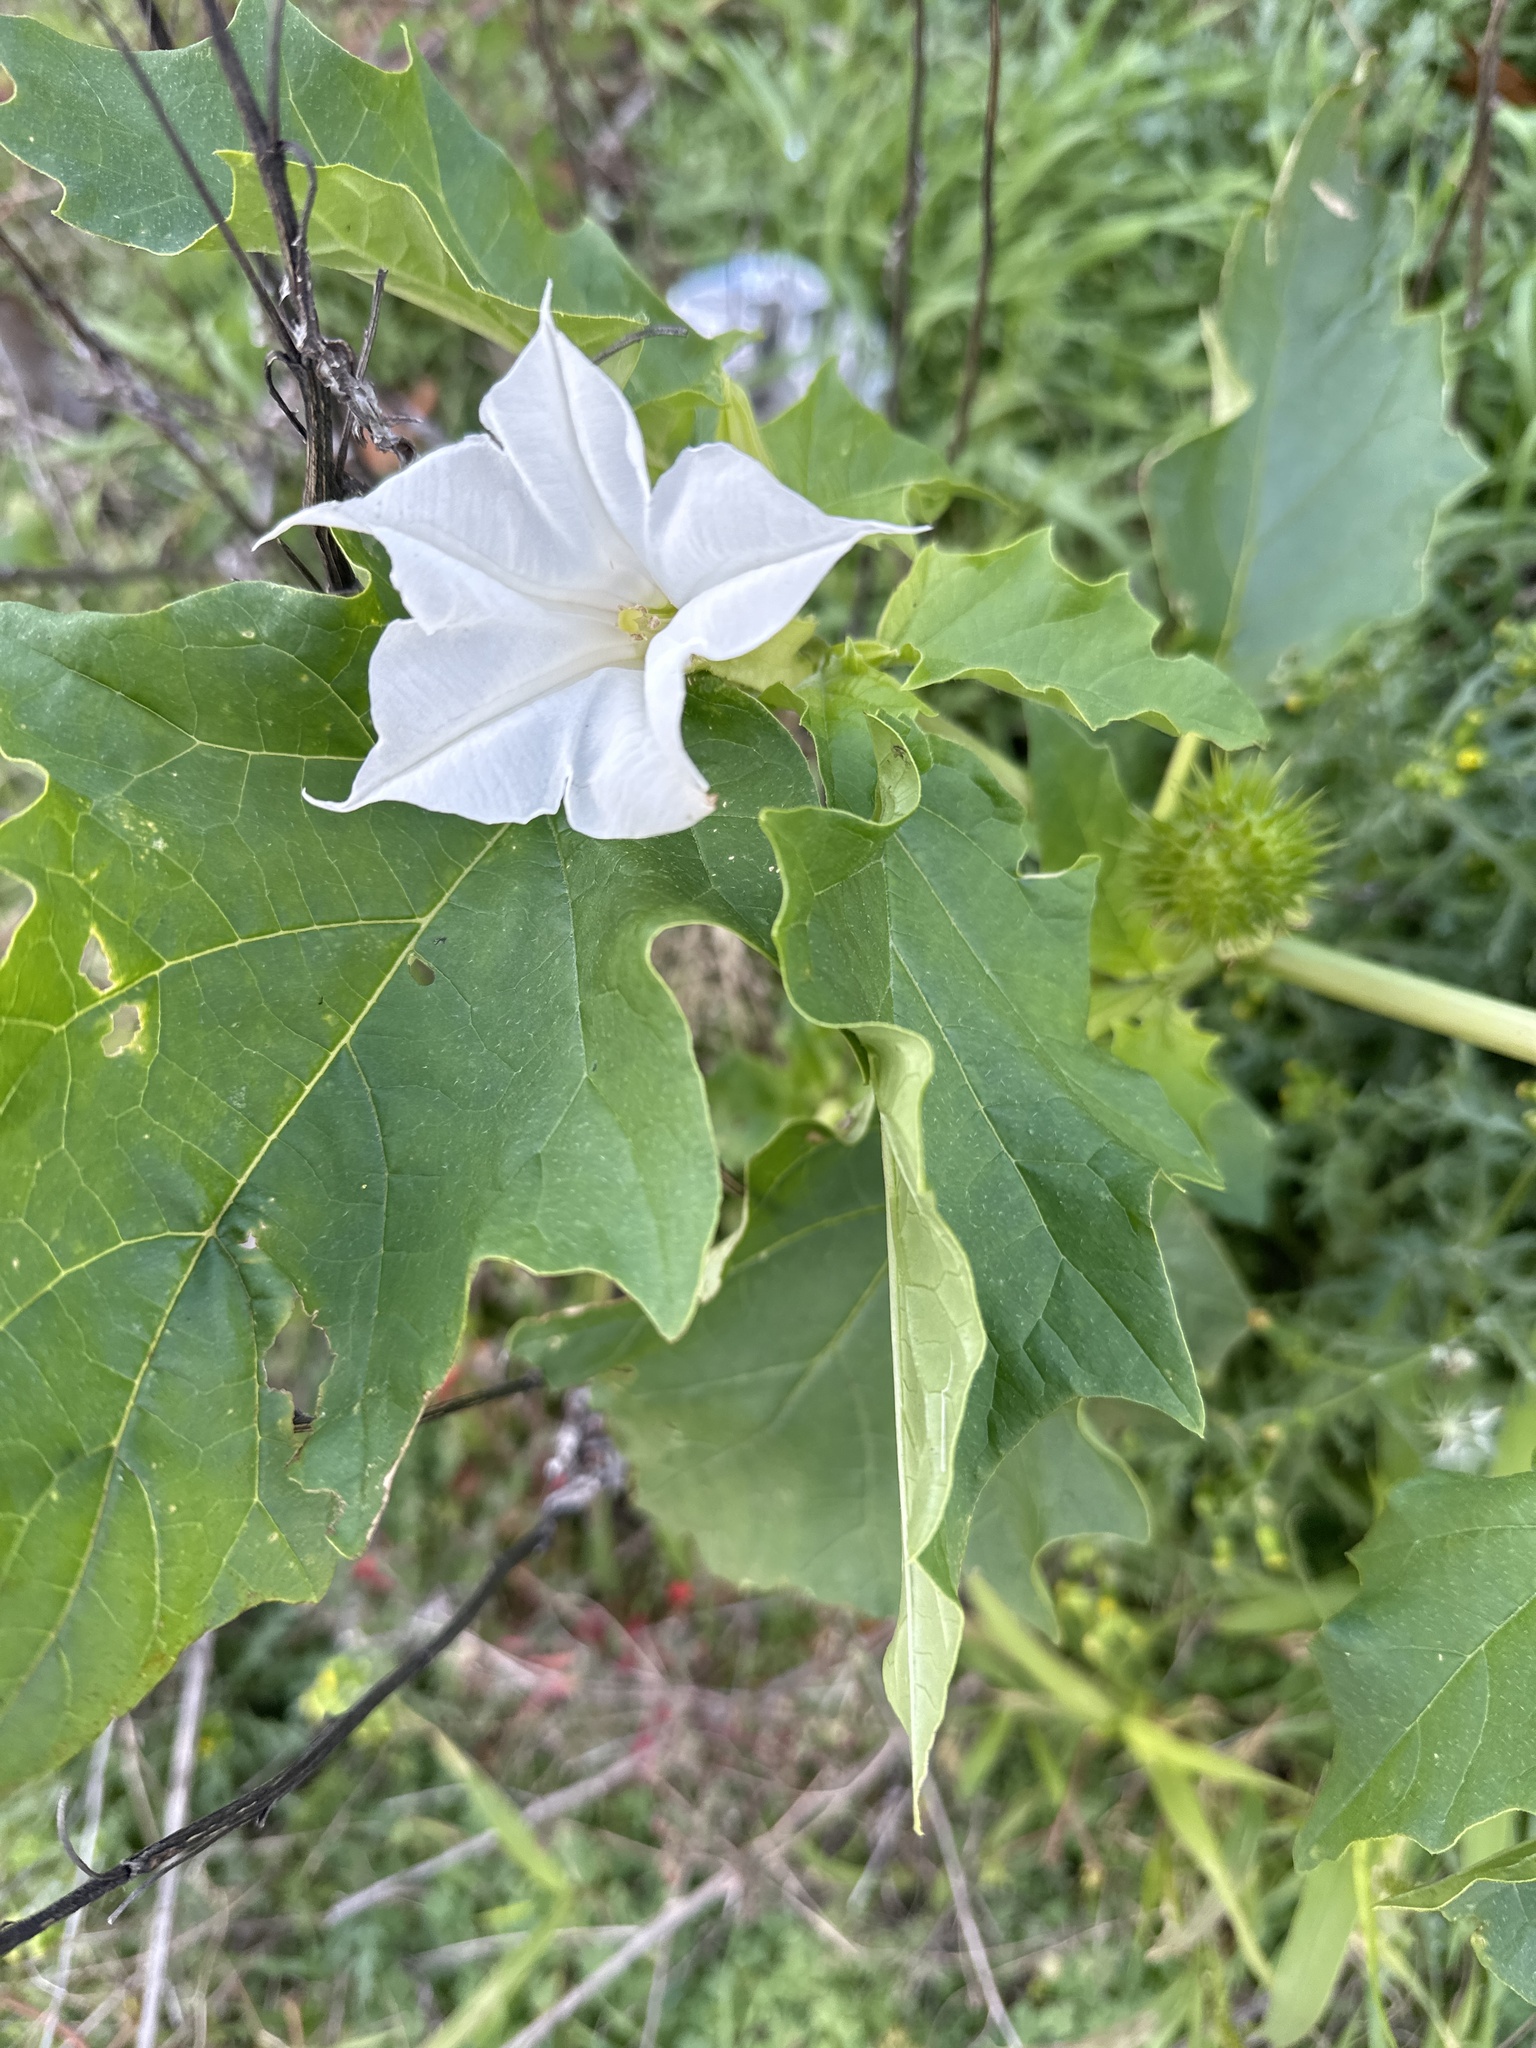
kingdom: Plantae
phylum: Tracheophyta
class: Magnoliopsida
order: Solanales
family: Solanaceae
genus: Datura
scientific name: Datura stramonium
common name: Thorn-apple
